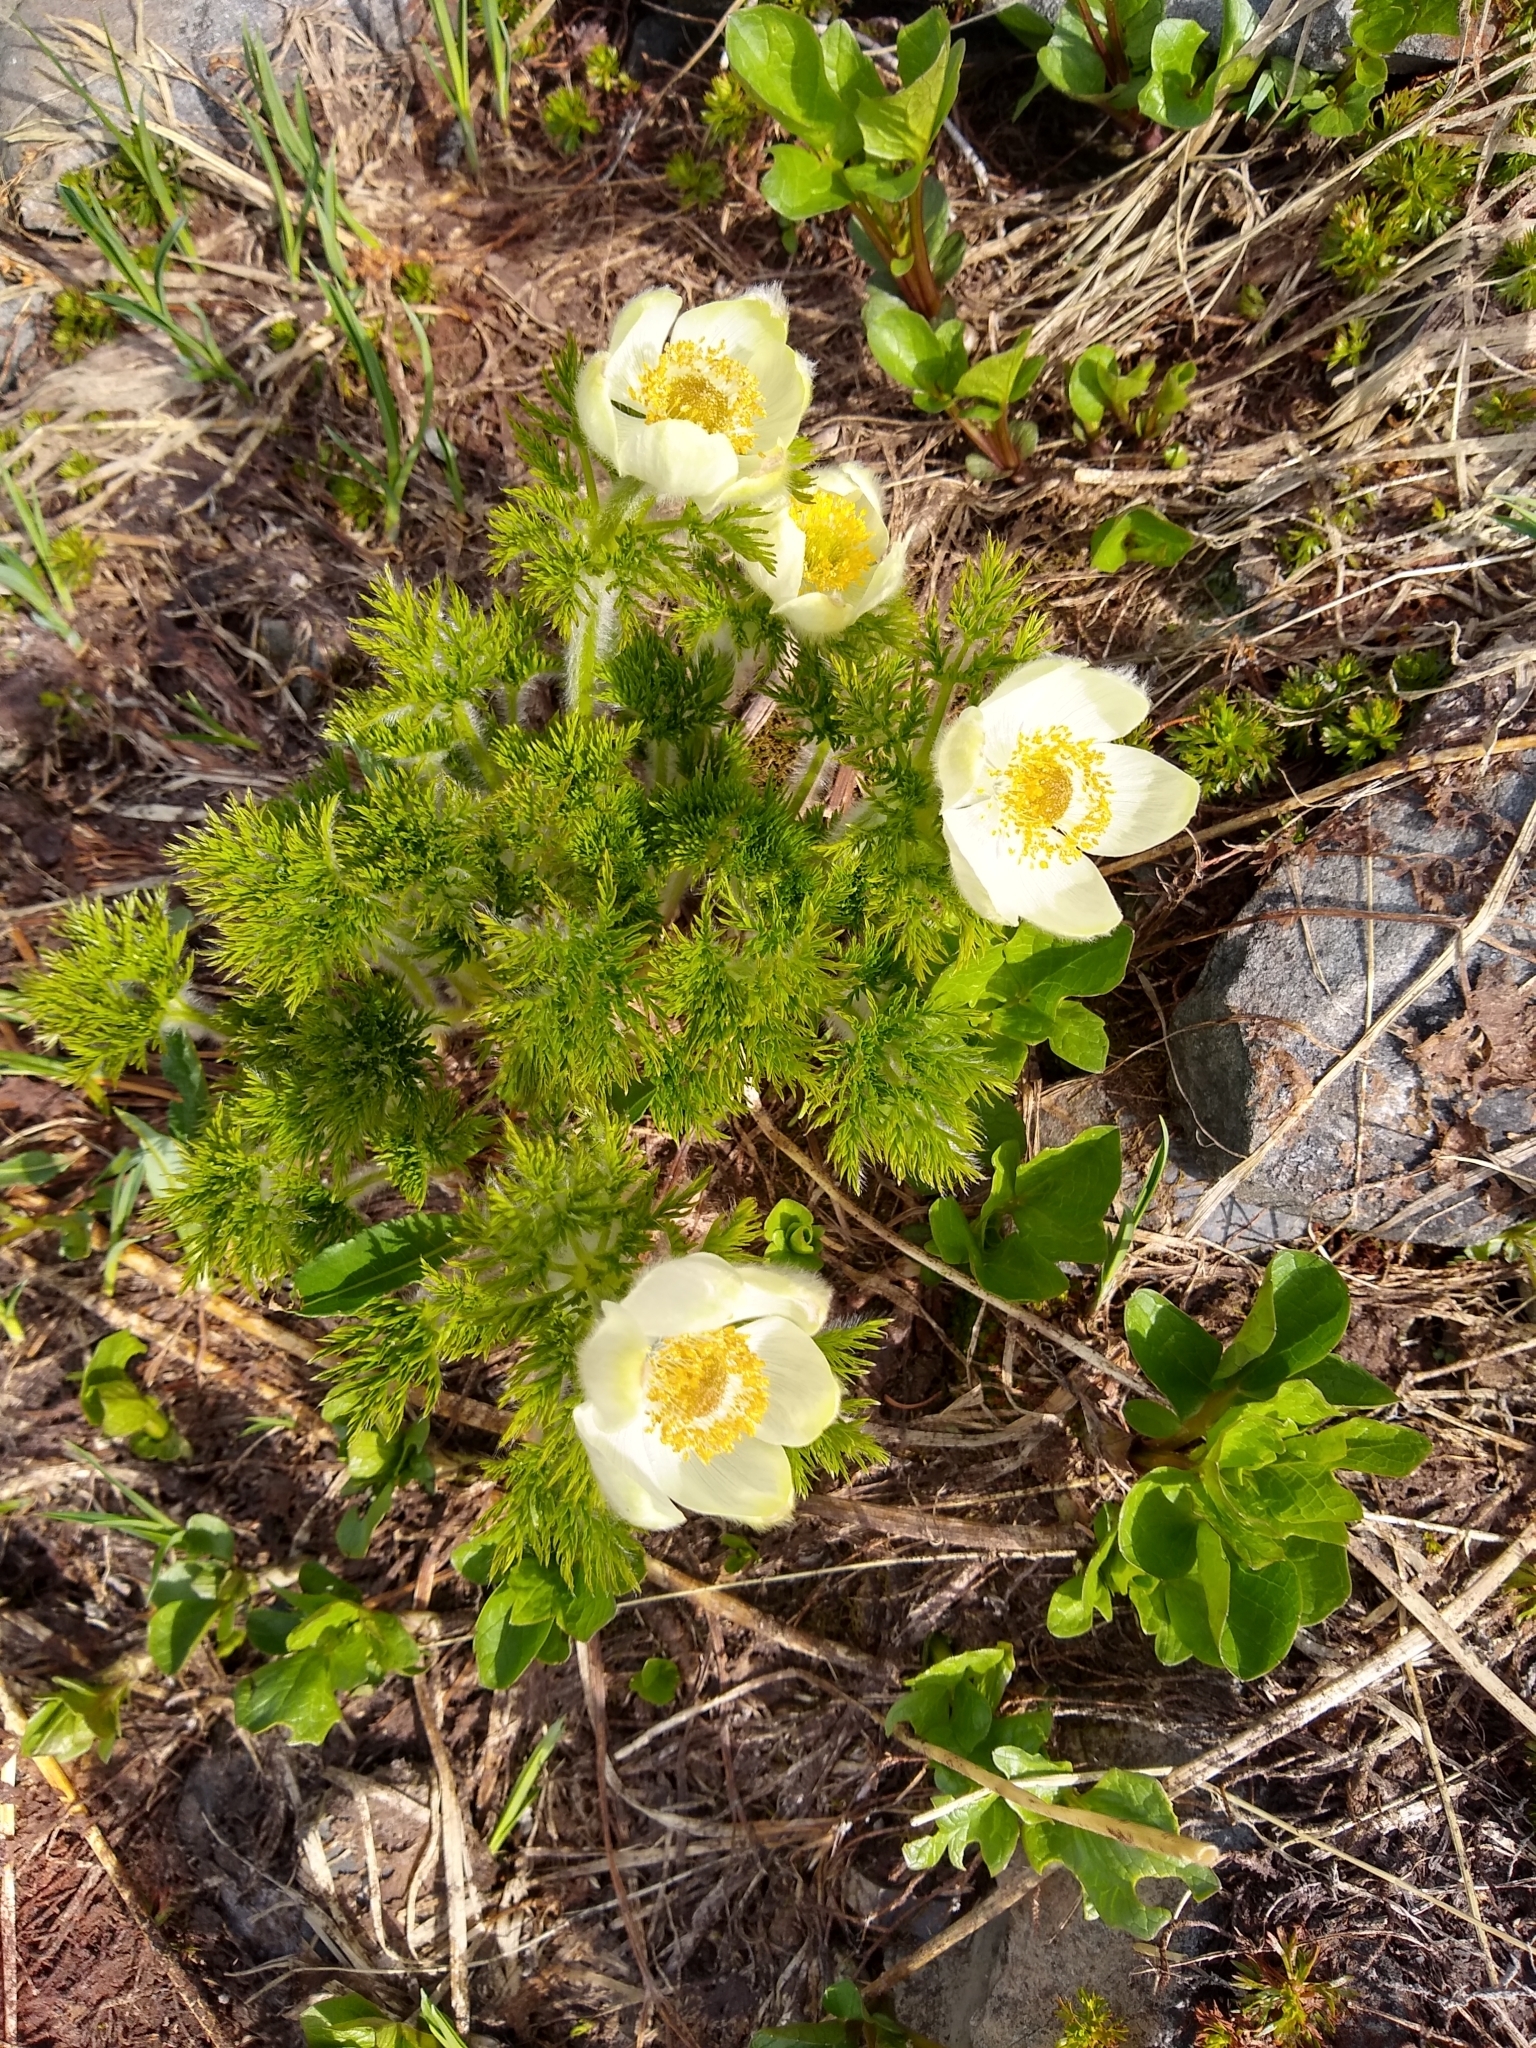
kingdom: Plantae
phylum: Tracheophyta
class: Magnoliopsida
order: Ranunculales
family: Ranunculaceae
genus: Pulsatilla
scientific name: Pulsatilla occidentalis
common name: Mountain pasqueflower
